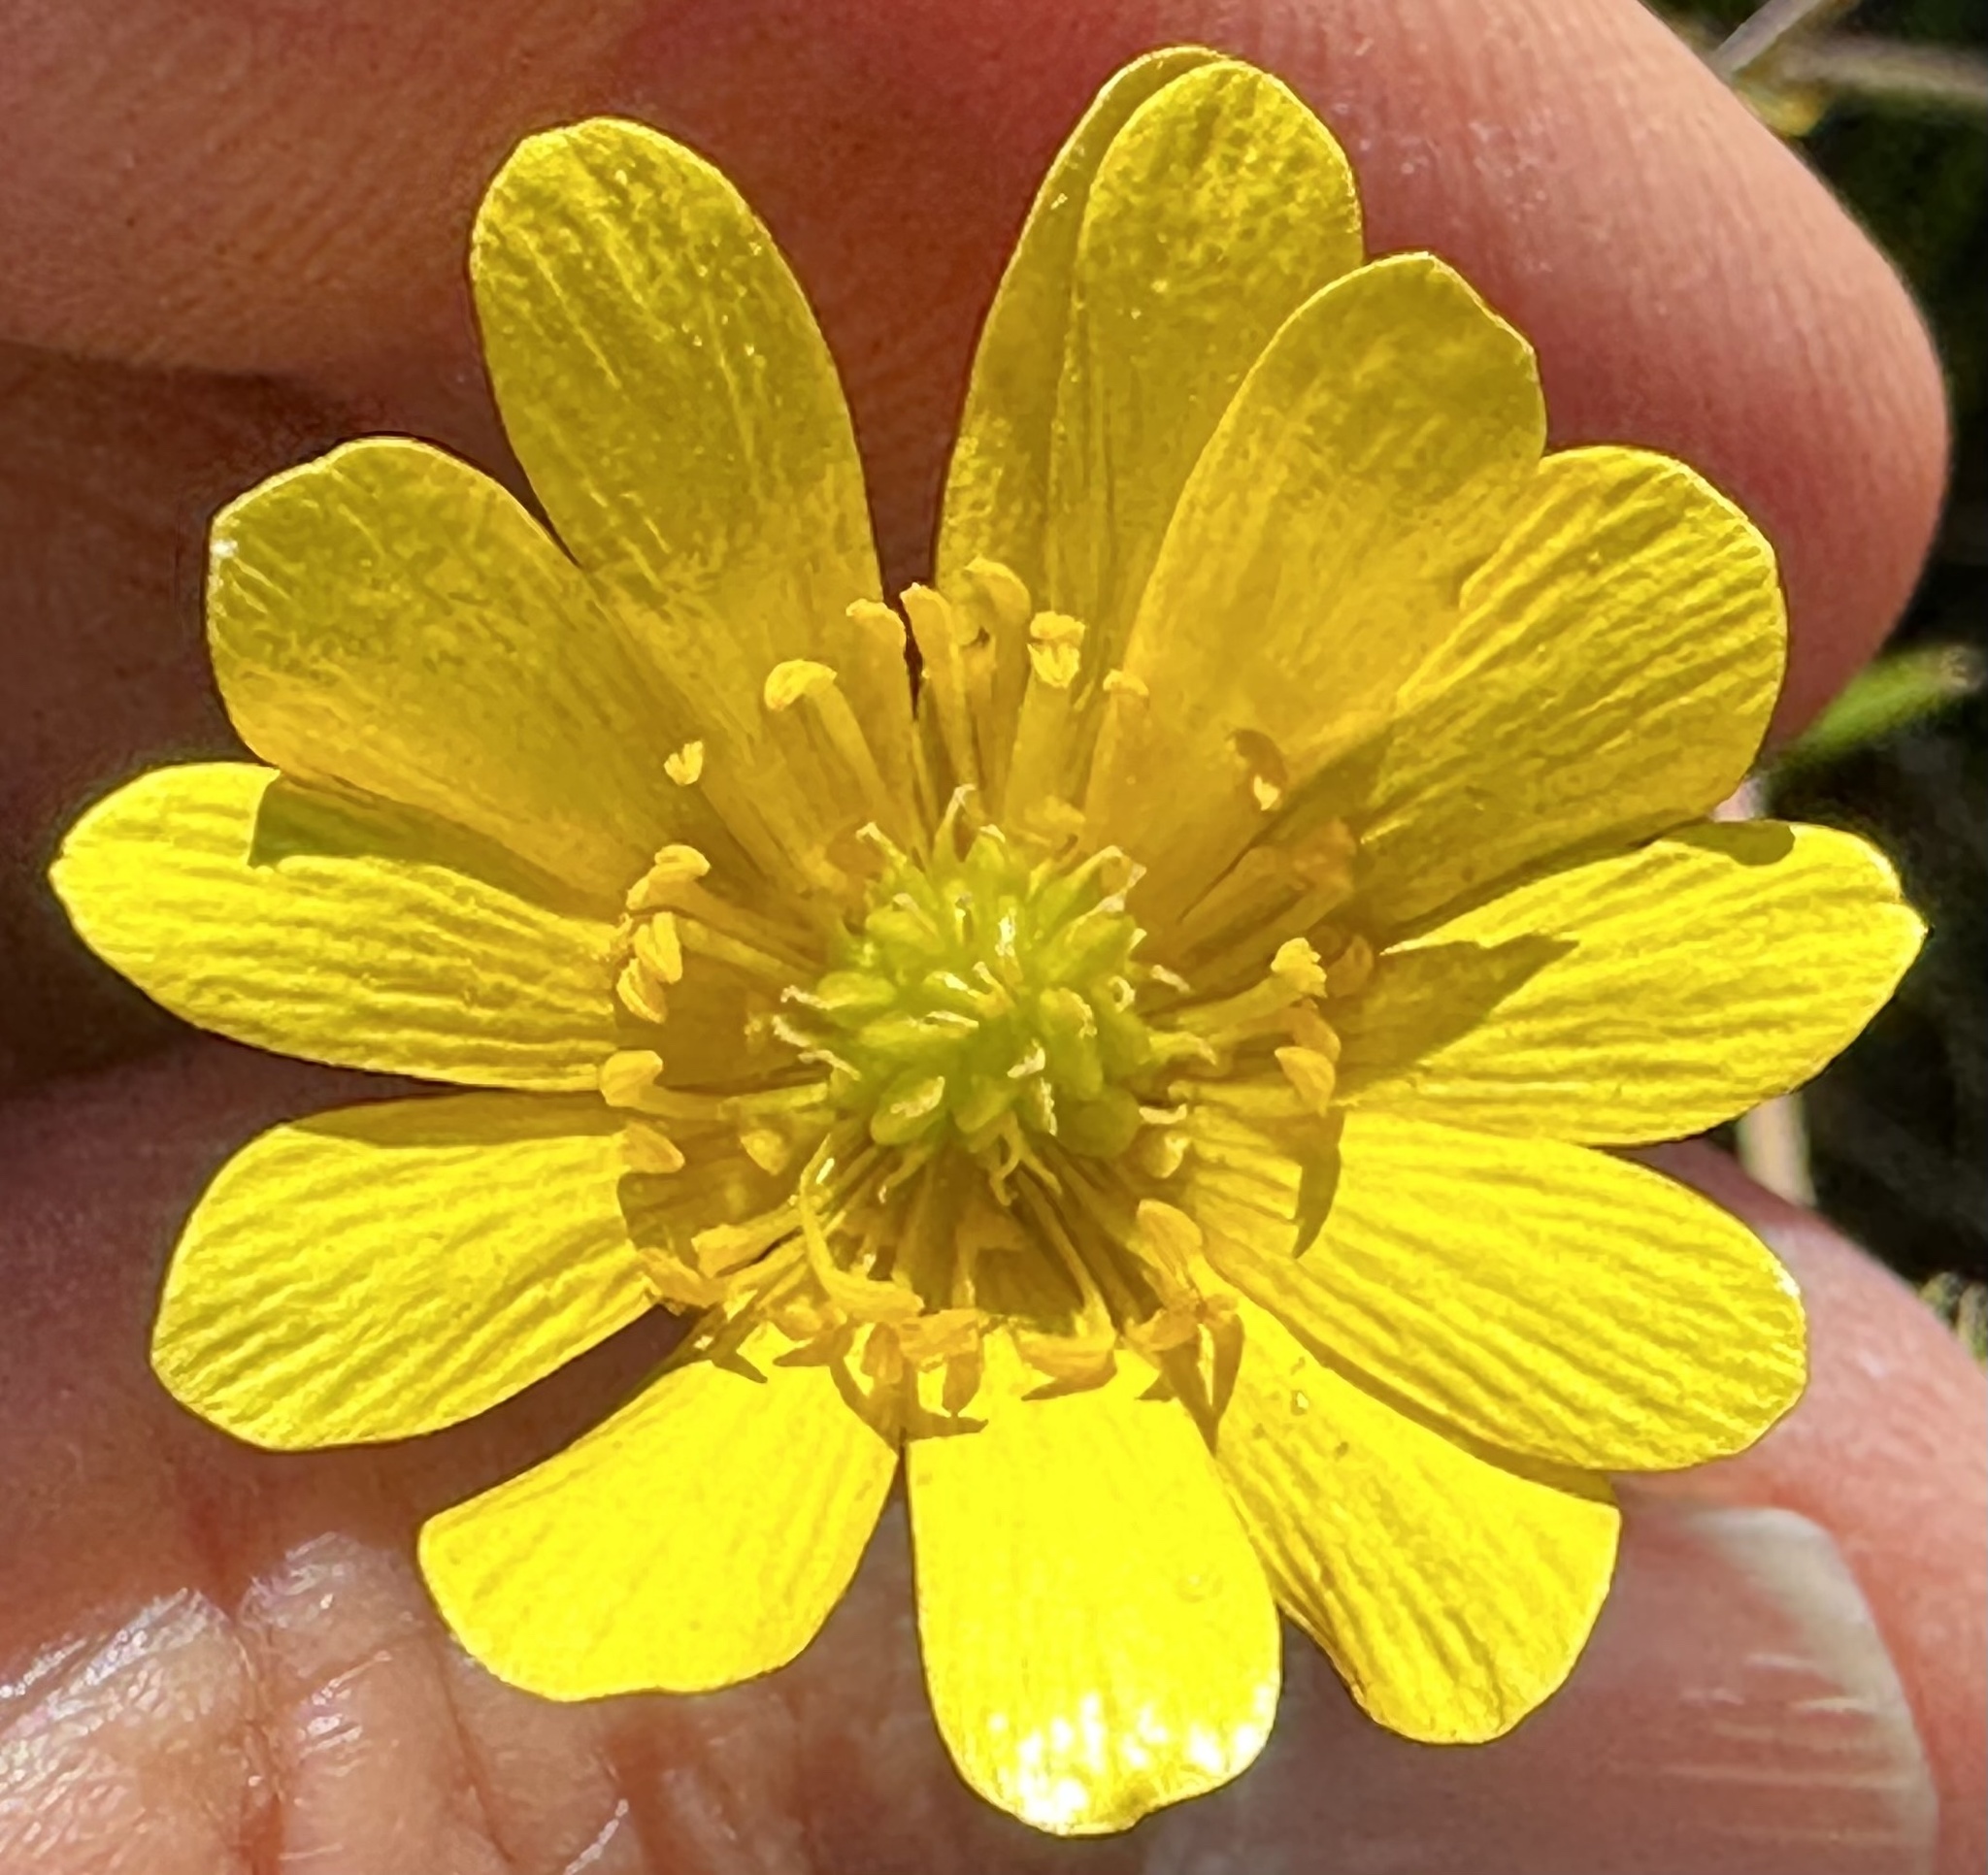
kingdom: Plantae
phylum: Tracheophyta
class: Magnoliopsida
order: Ranunculales
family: Ranunculaceae
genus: Ranunculus
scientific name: Ranunculus californicus
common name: California buttercup
